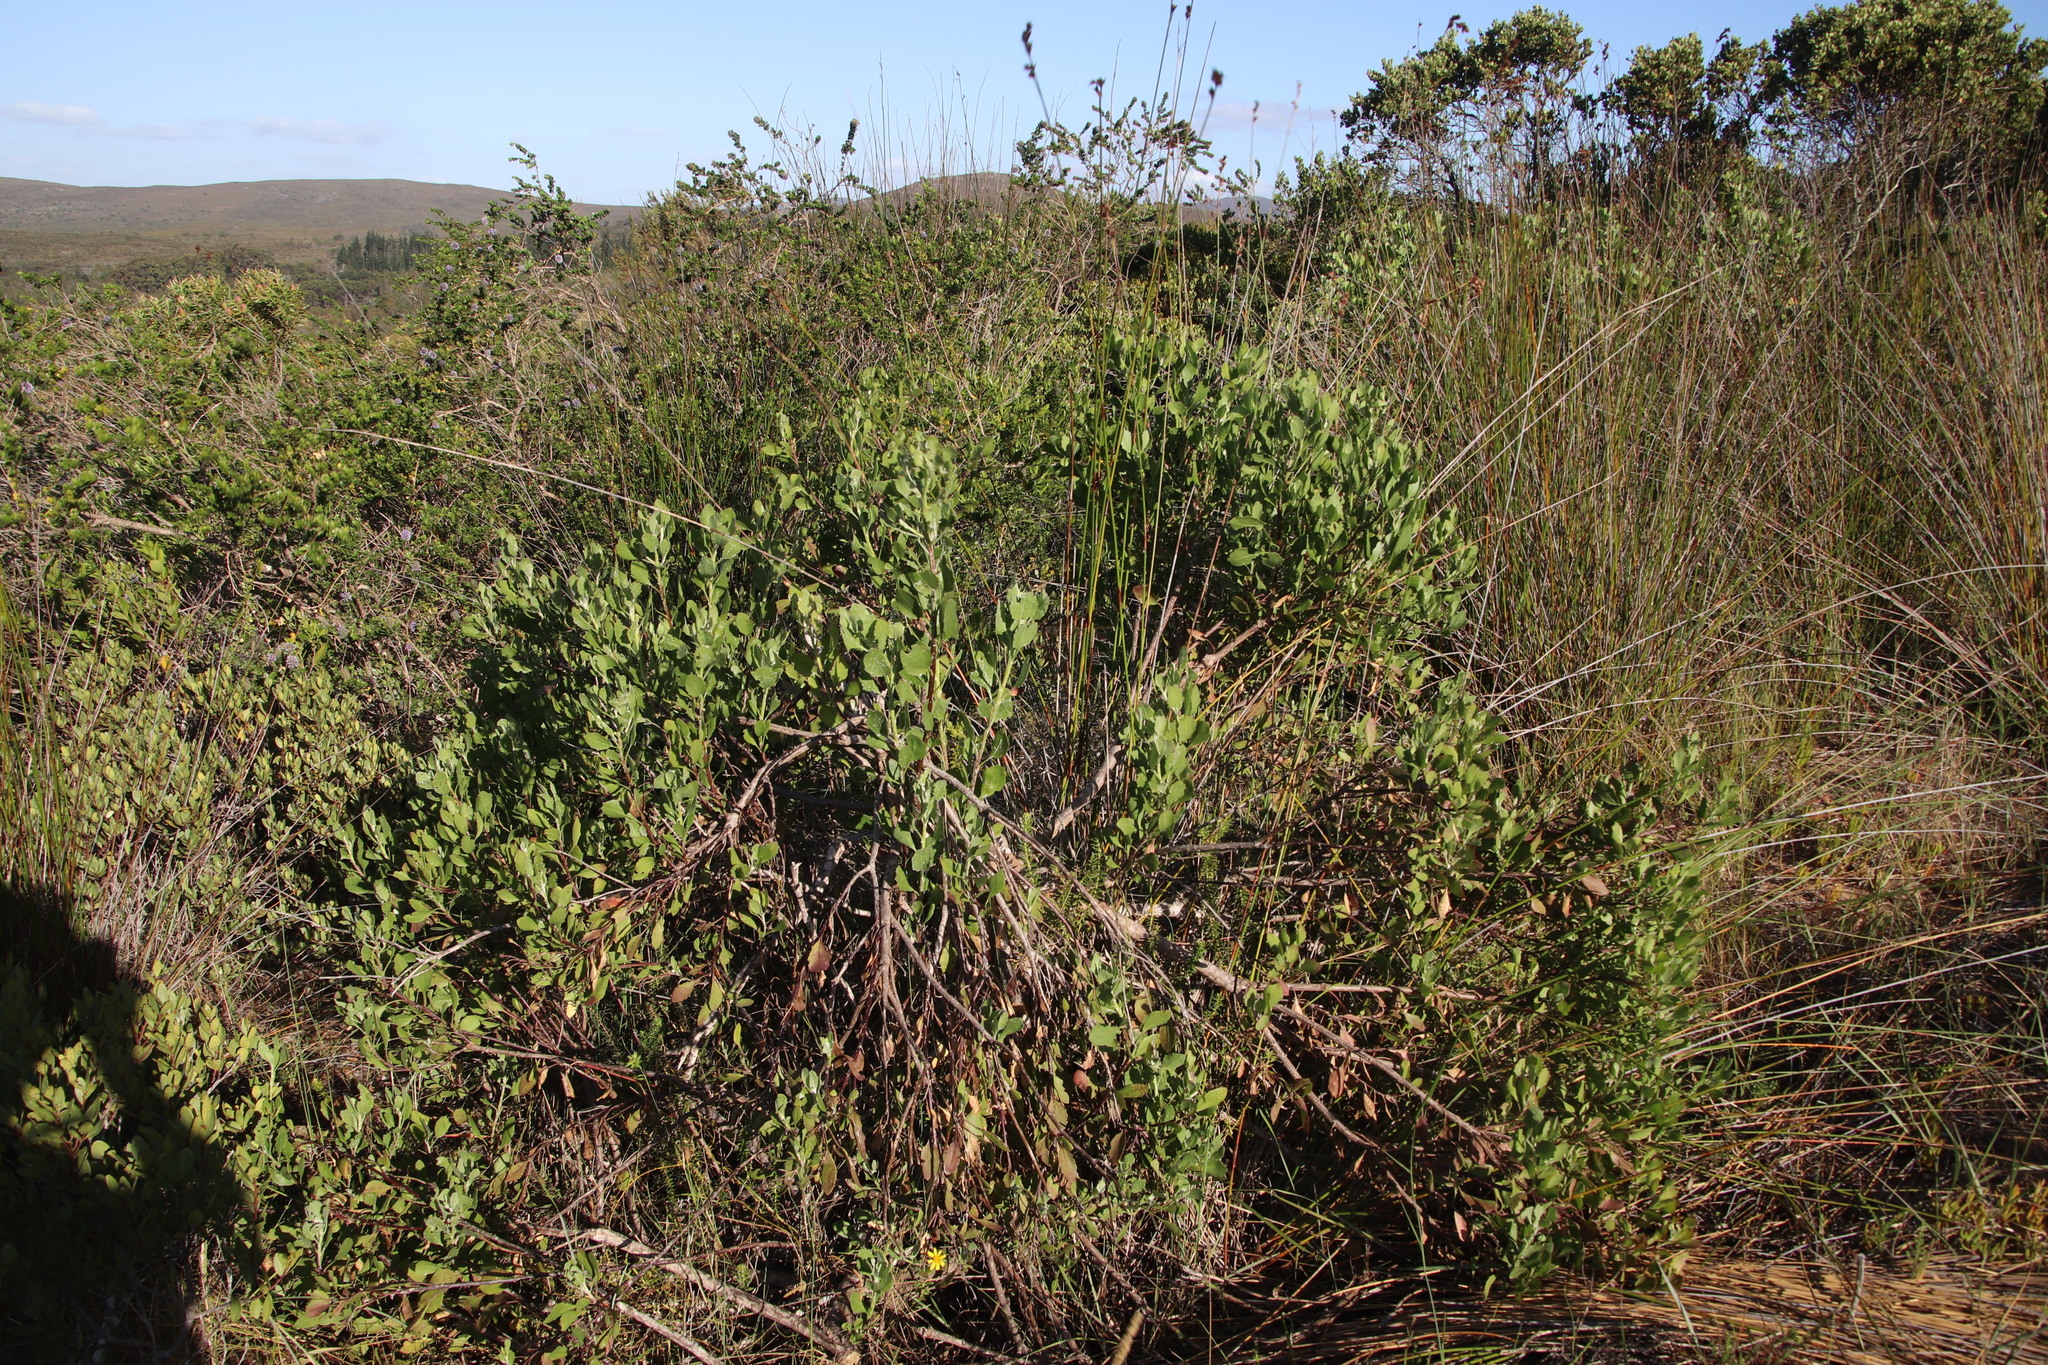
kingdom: Plantae
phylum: Tracheophyta
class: Magnoliopsida
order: Asterales
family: Asteraceae
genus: Osteospermum
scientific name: Osteospermum moniliferum
